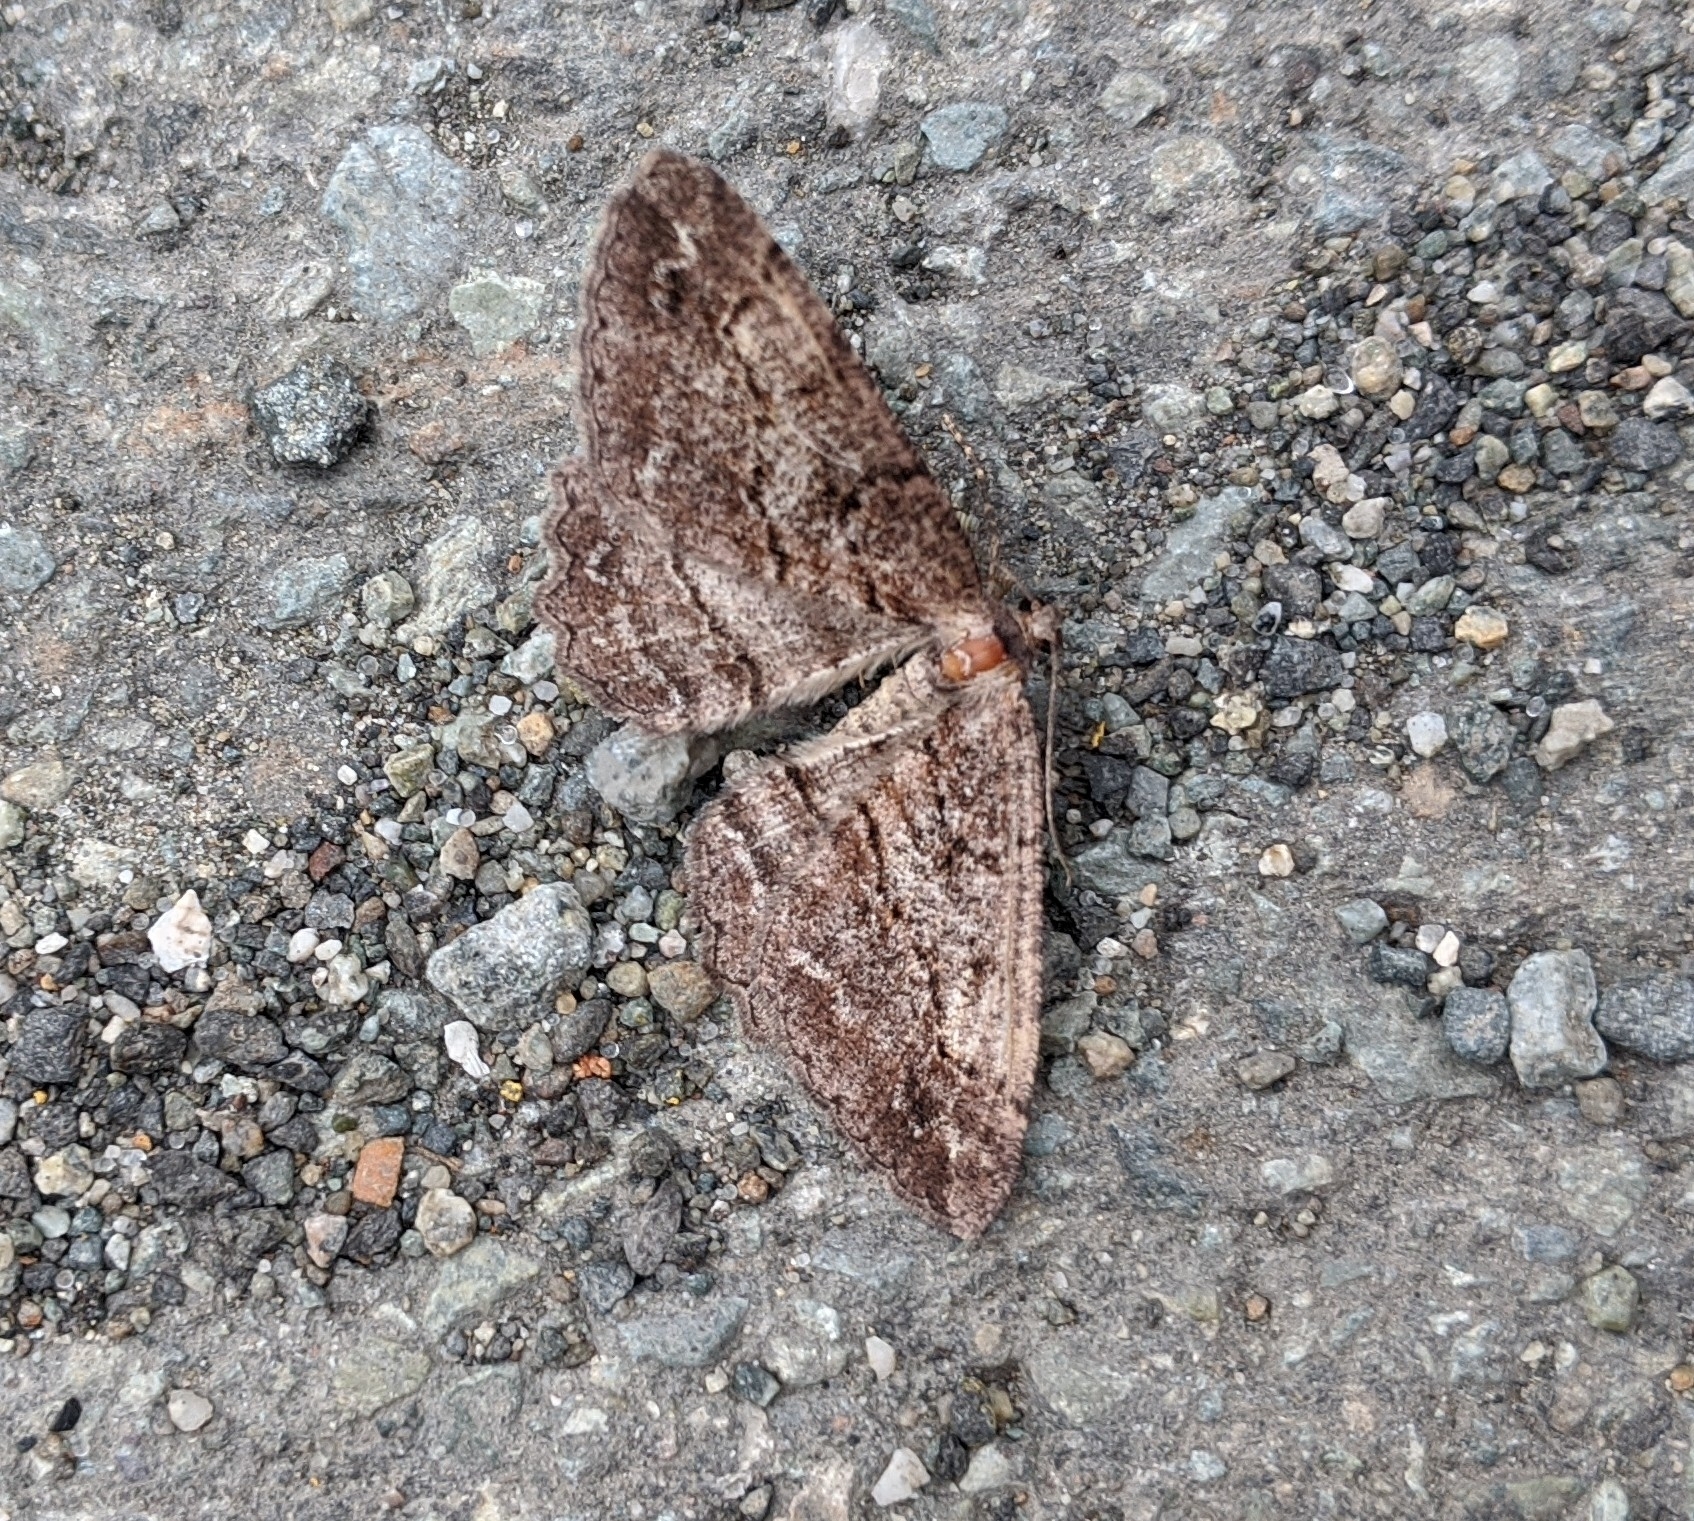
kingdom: Animalia
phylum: Arthropoda
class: Insecta
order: Lepidoptera
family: Geometridae
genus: Neoalcis
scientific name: Neoalcis californiaria
